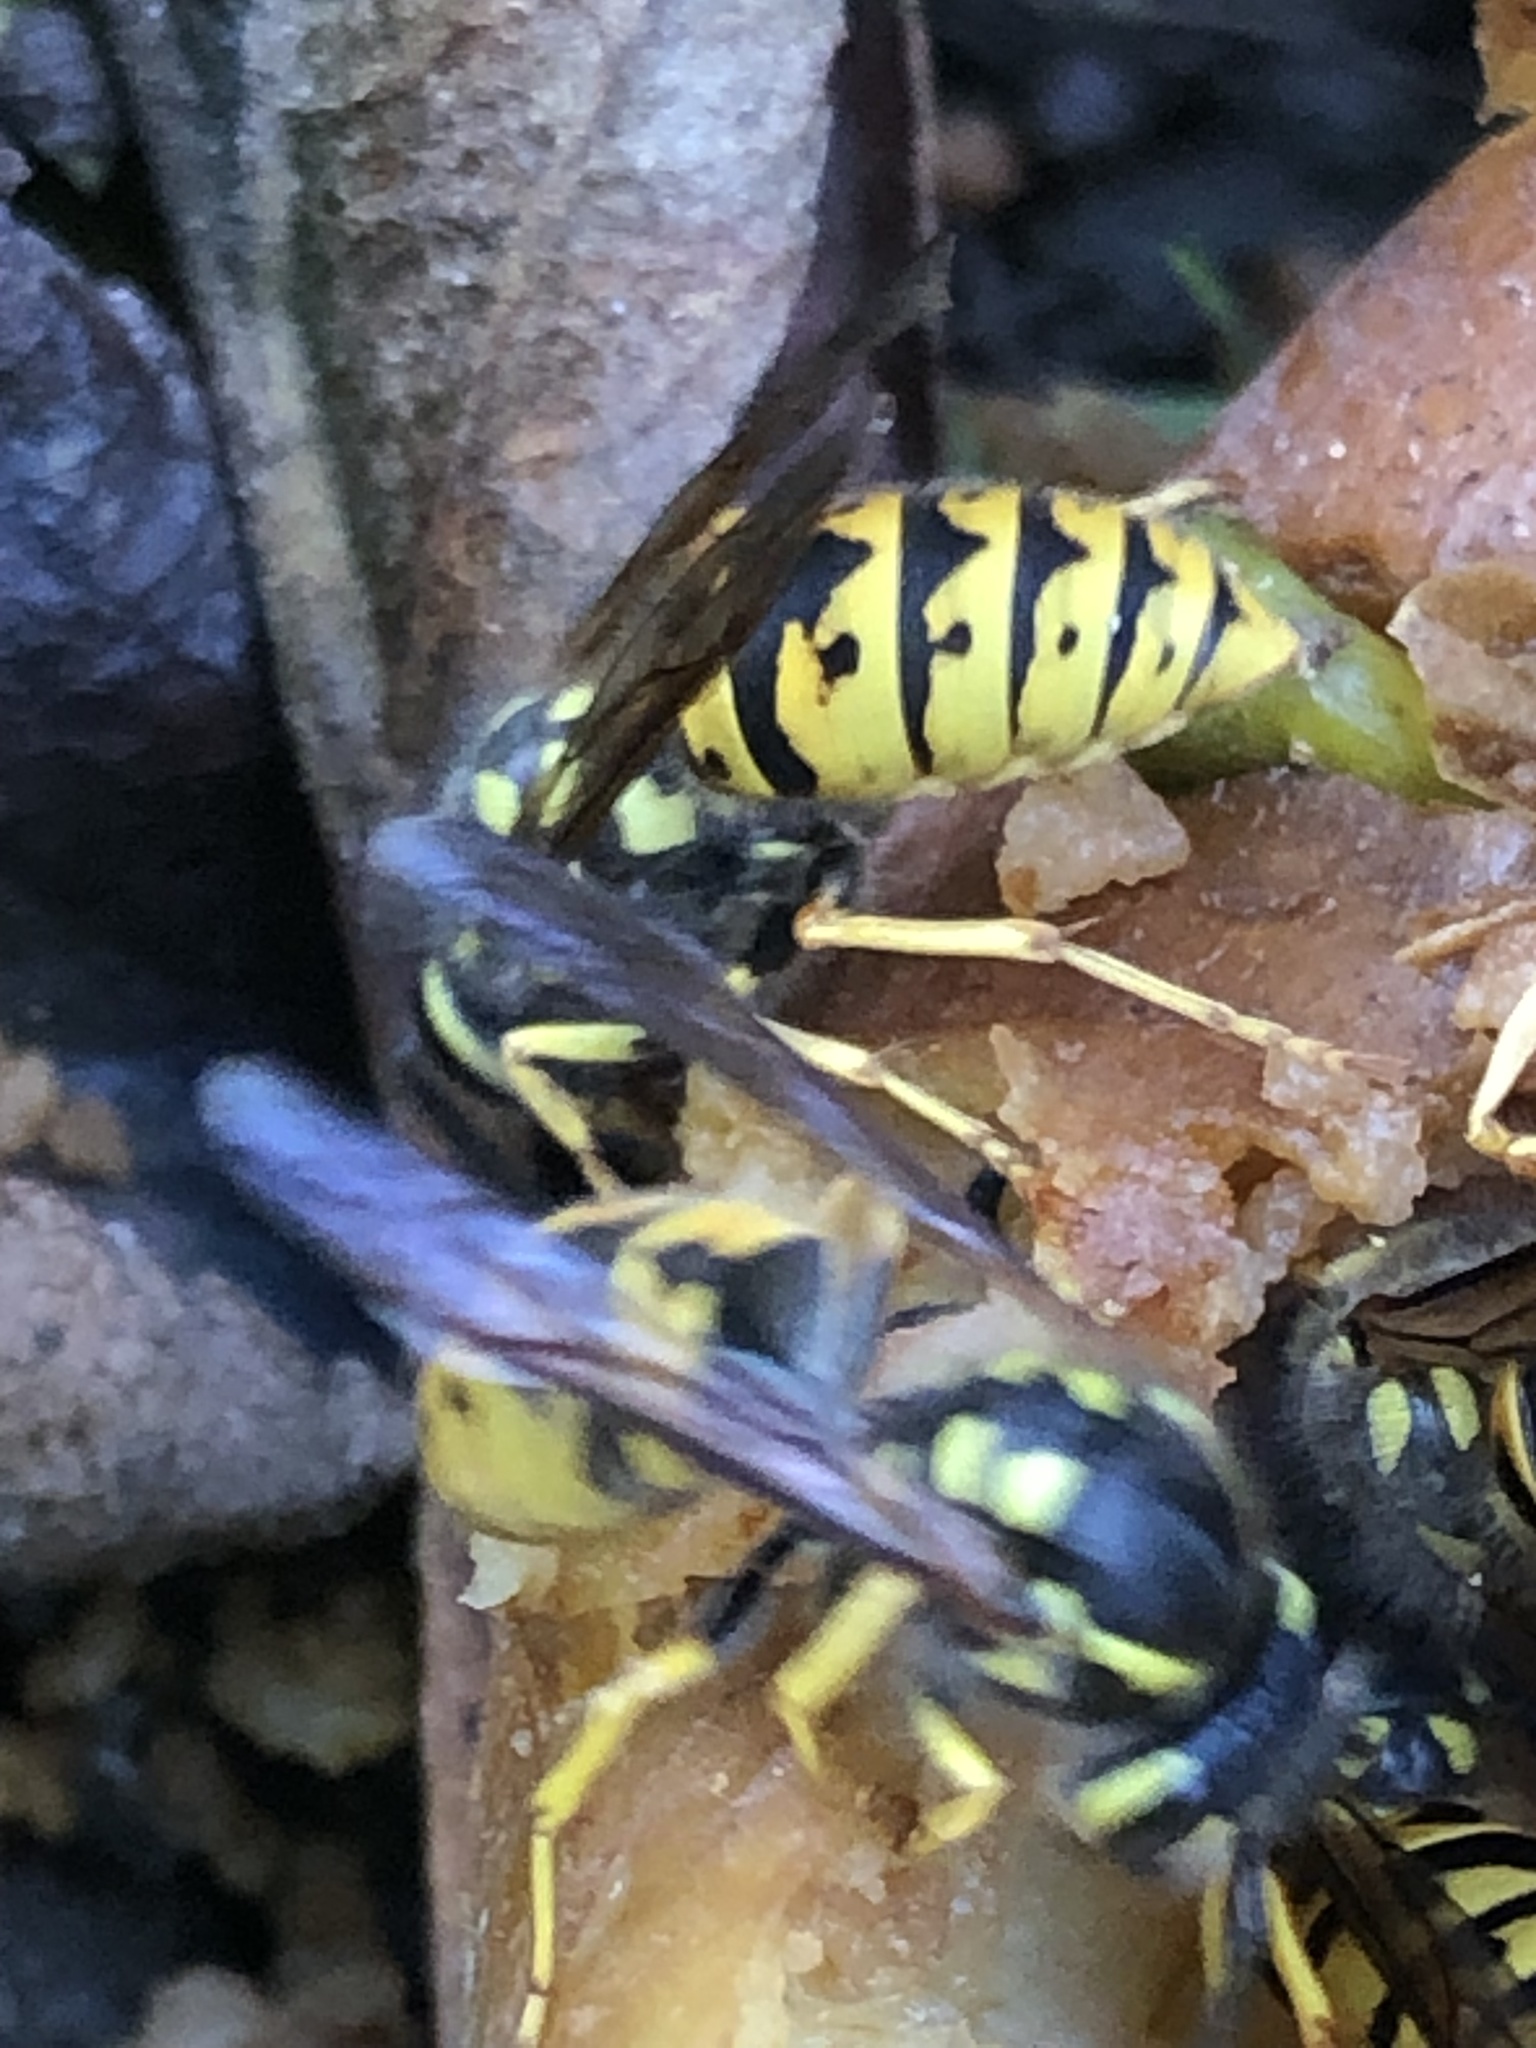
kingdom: Animalia
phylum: Arthropoda
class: Insecta
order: Hymenoptera
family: Vespidae
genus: Vespula
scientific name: Vespula germanica
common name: German wasp
